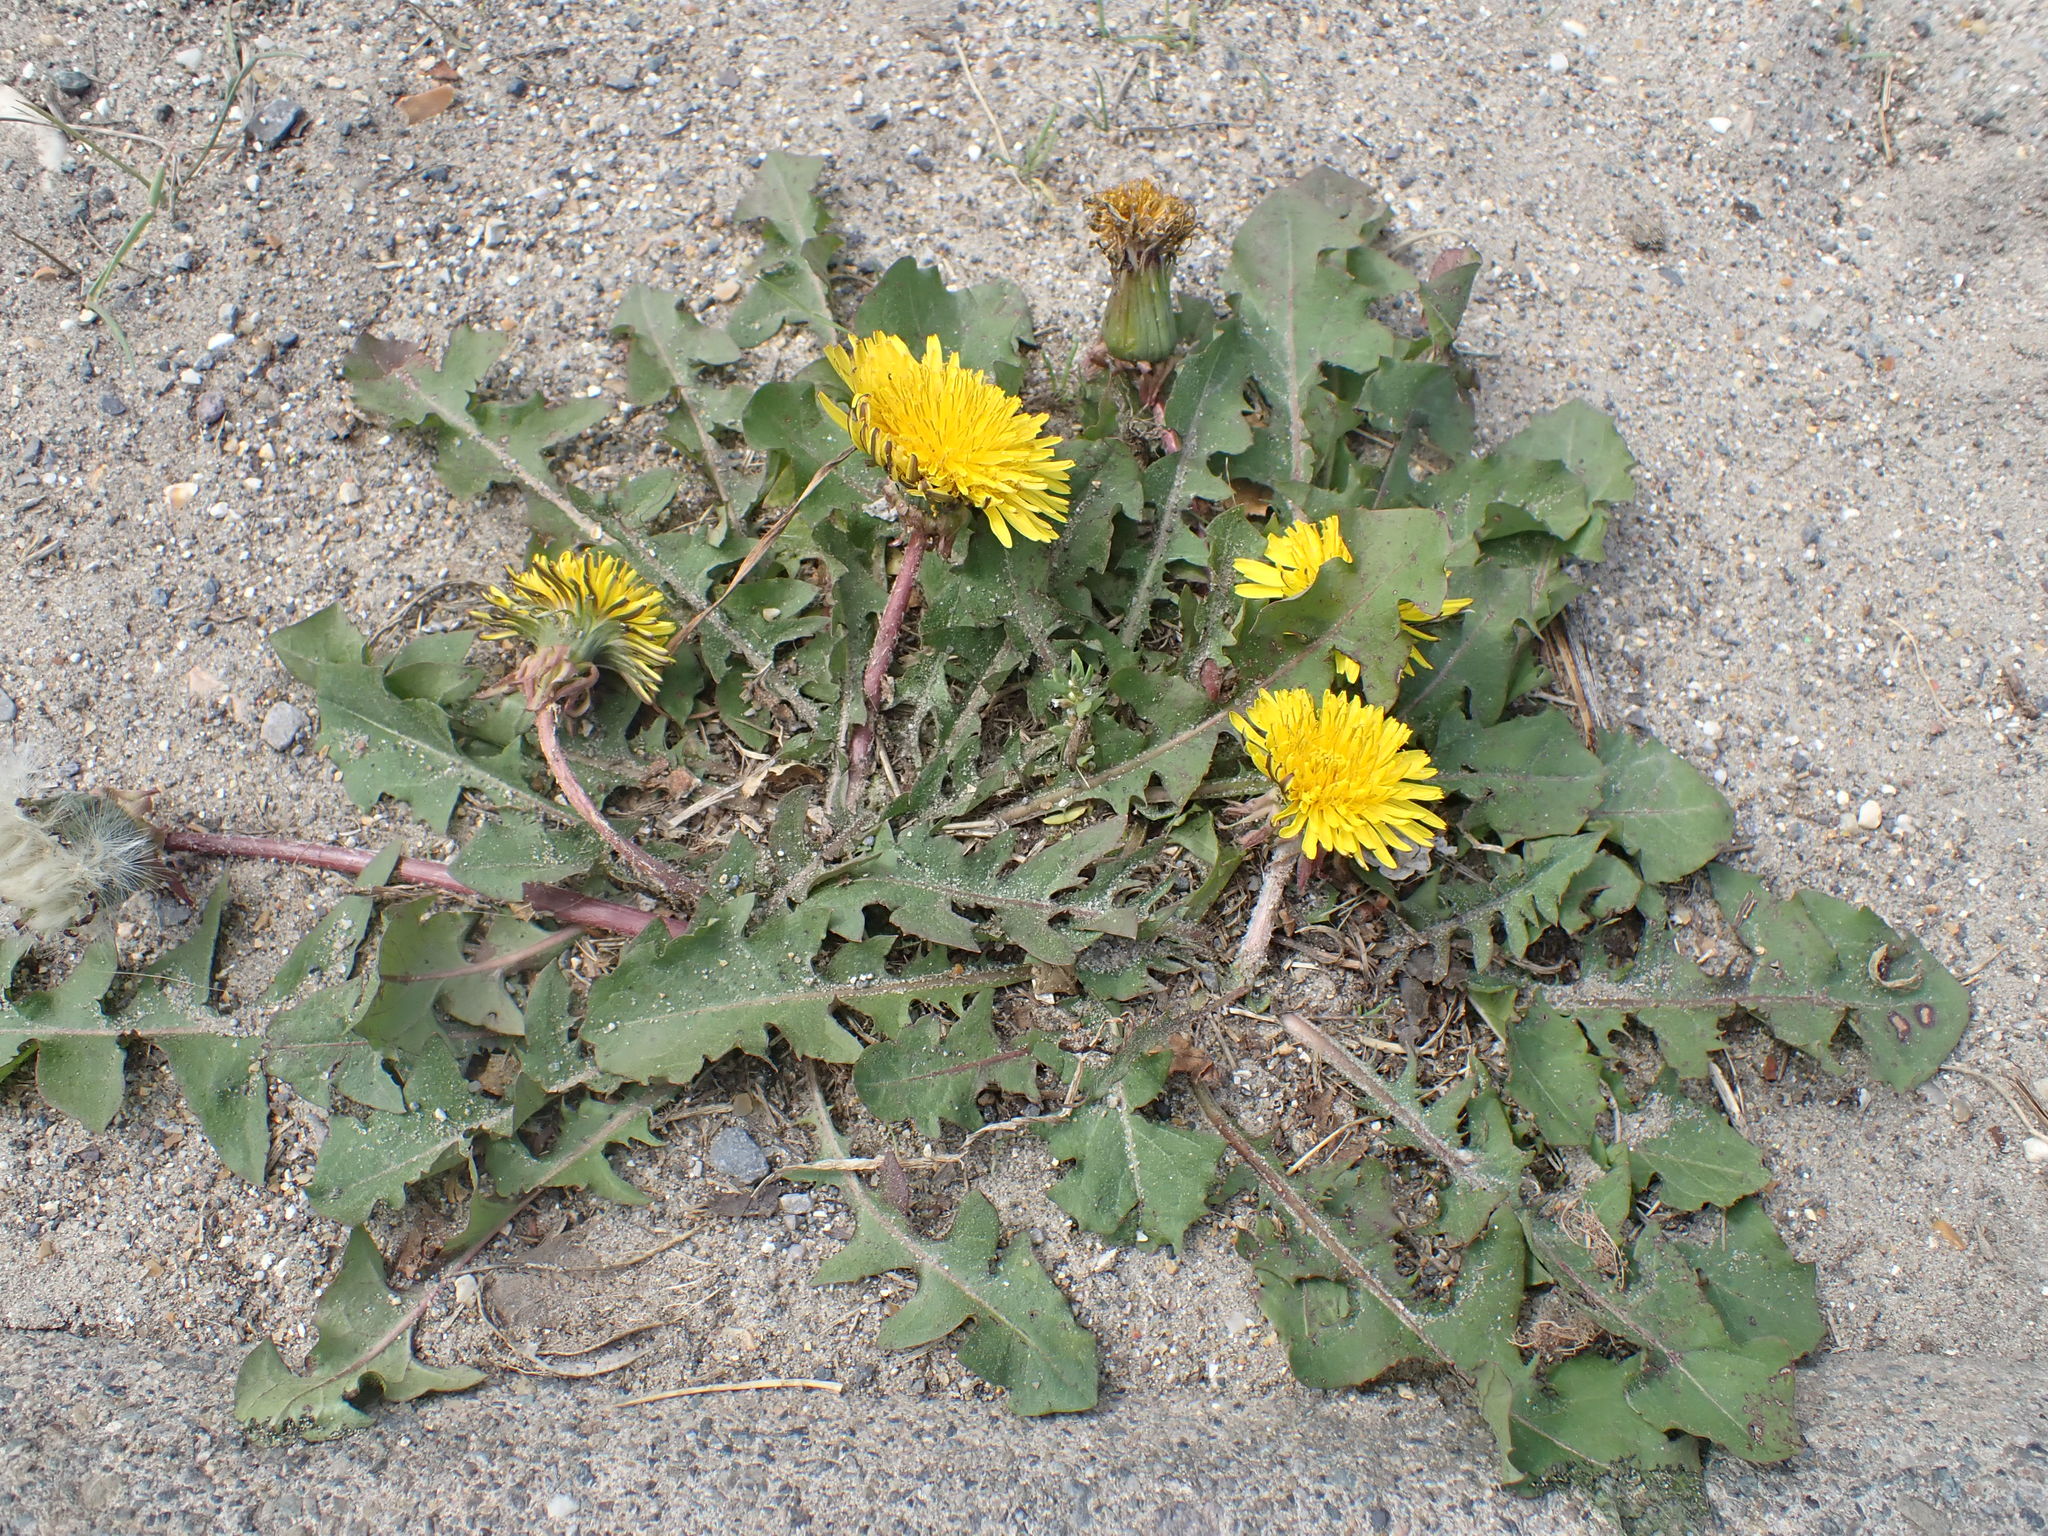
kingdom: Plantae
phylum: Tracheophyta
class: Magnoliopsida
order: Asterales
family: Asteraceae
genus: Taraxacum
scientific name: Taraxacum officinale
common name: Common dandelion
